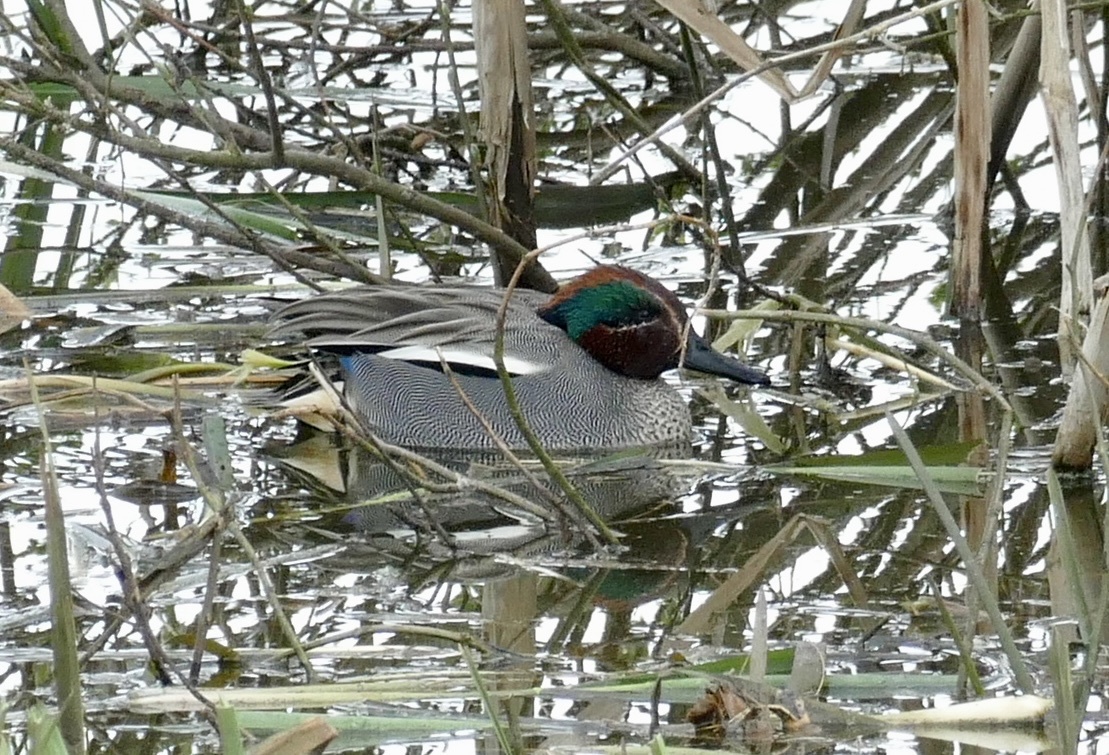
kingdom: Animalia
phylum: Chordata
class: Aves
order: Anseriformes
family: Anatidae
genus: Anas
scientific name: Anas crecca
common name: Eurasian teal
